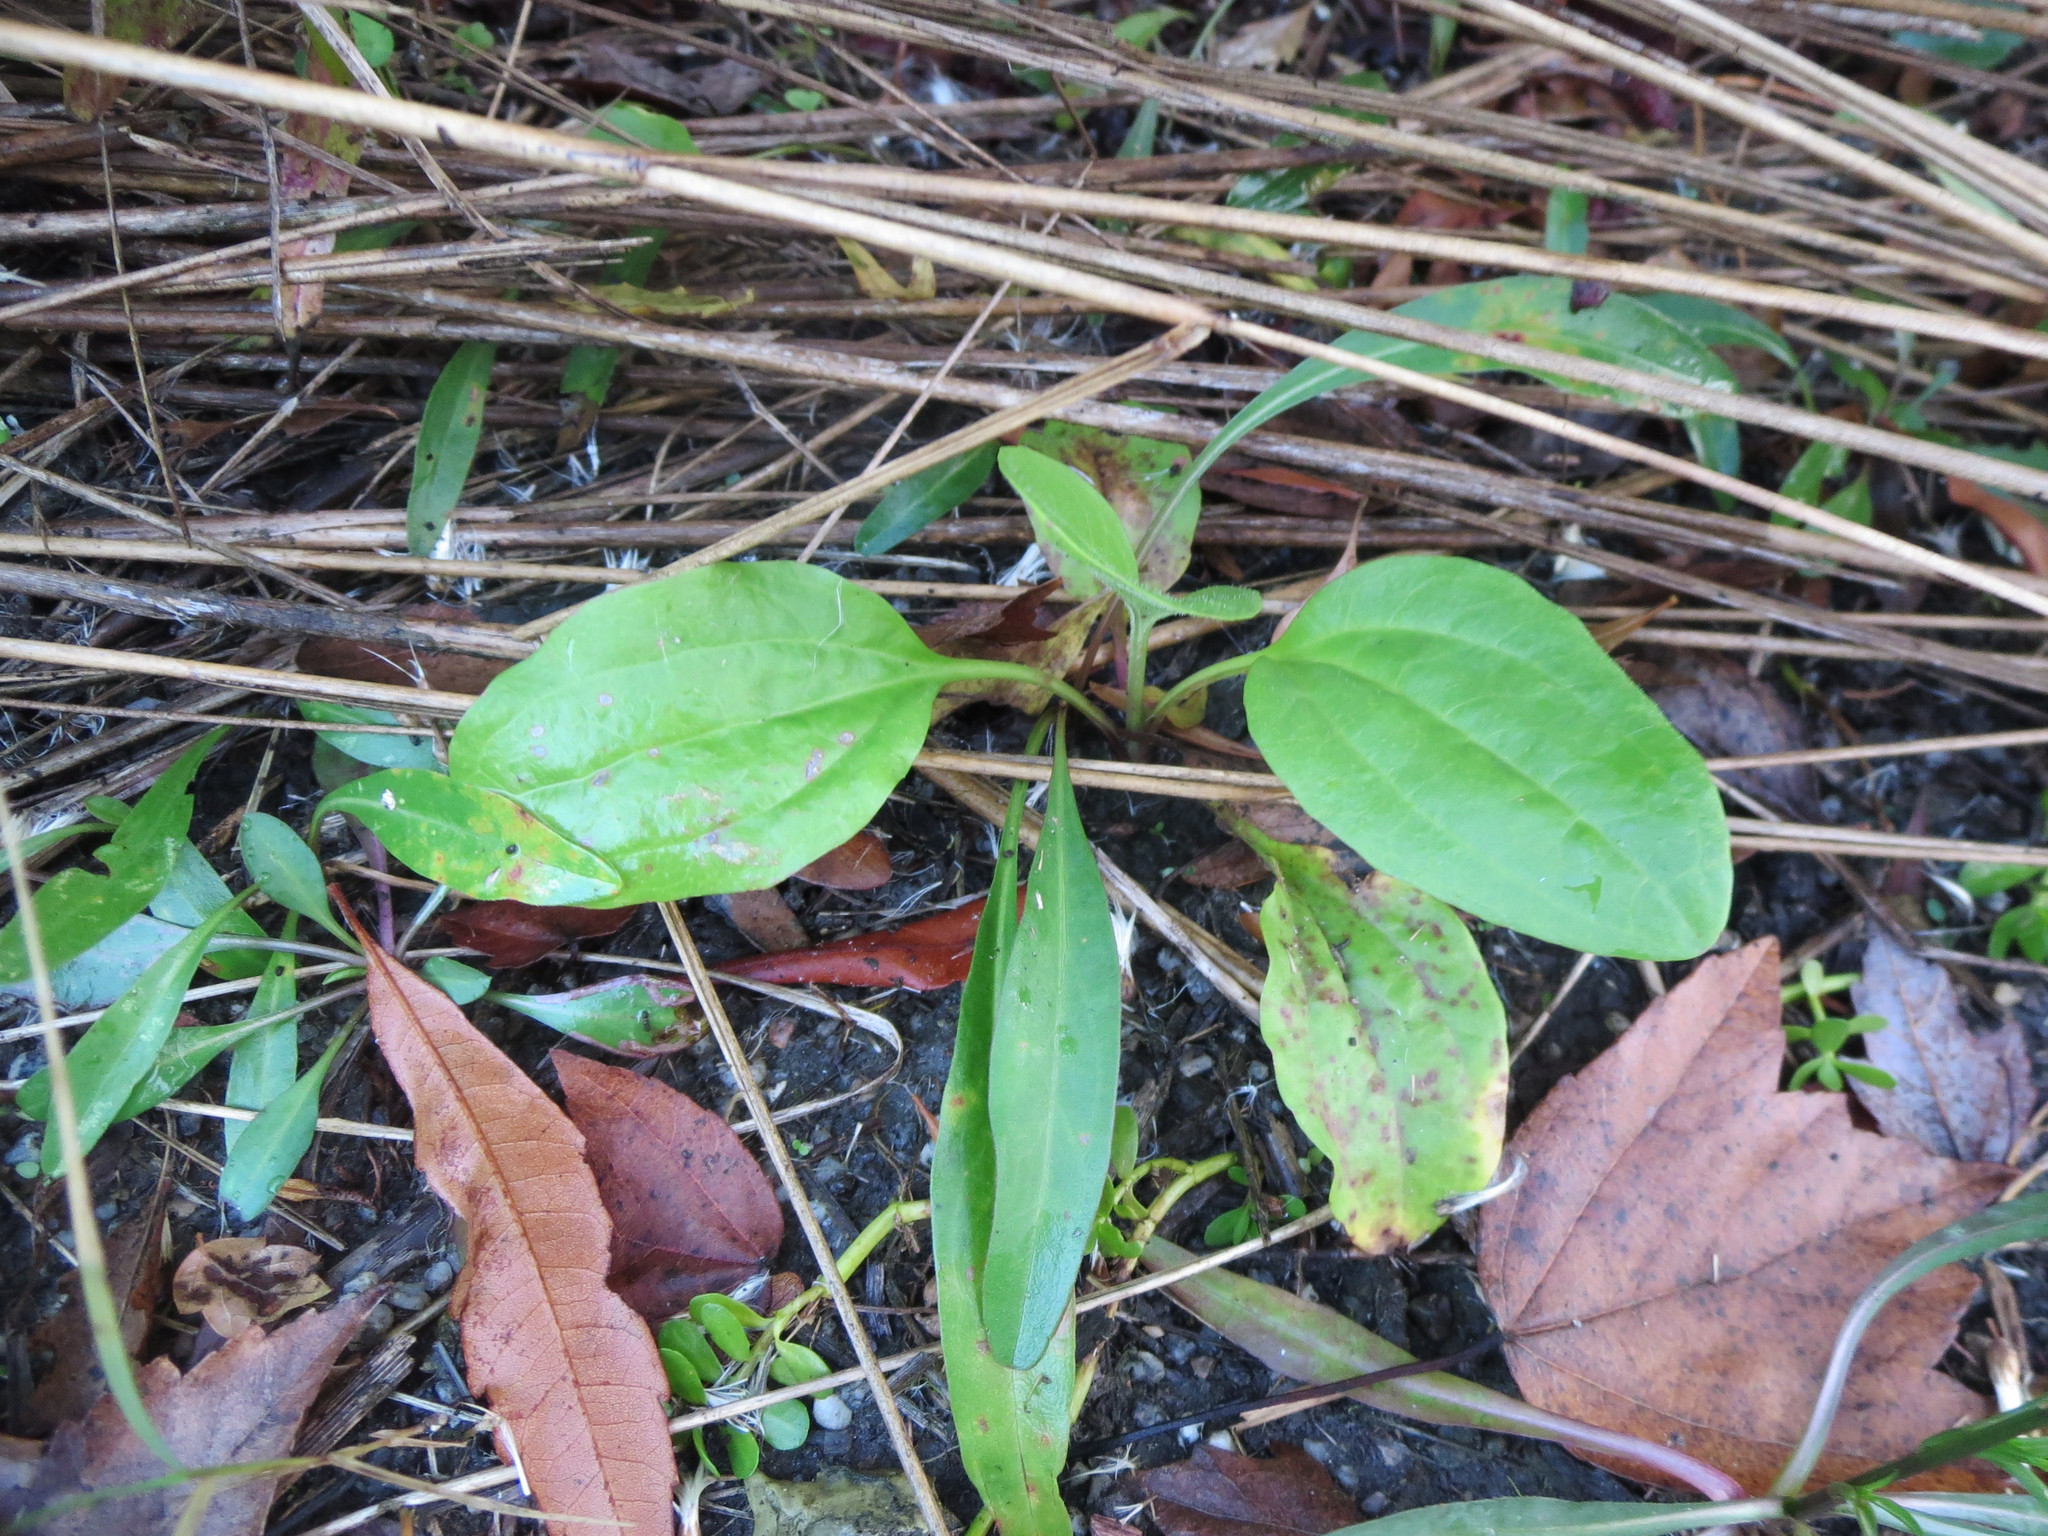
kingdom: Plantae
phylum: Tracheophyta
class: Magnoliopsida
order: Lamiales
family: Plantaginaceae
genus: Plantago
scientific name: Plantago major
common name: Common plantain
